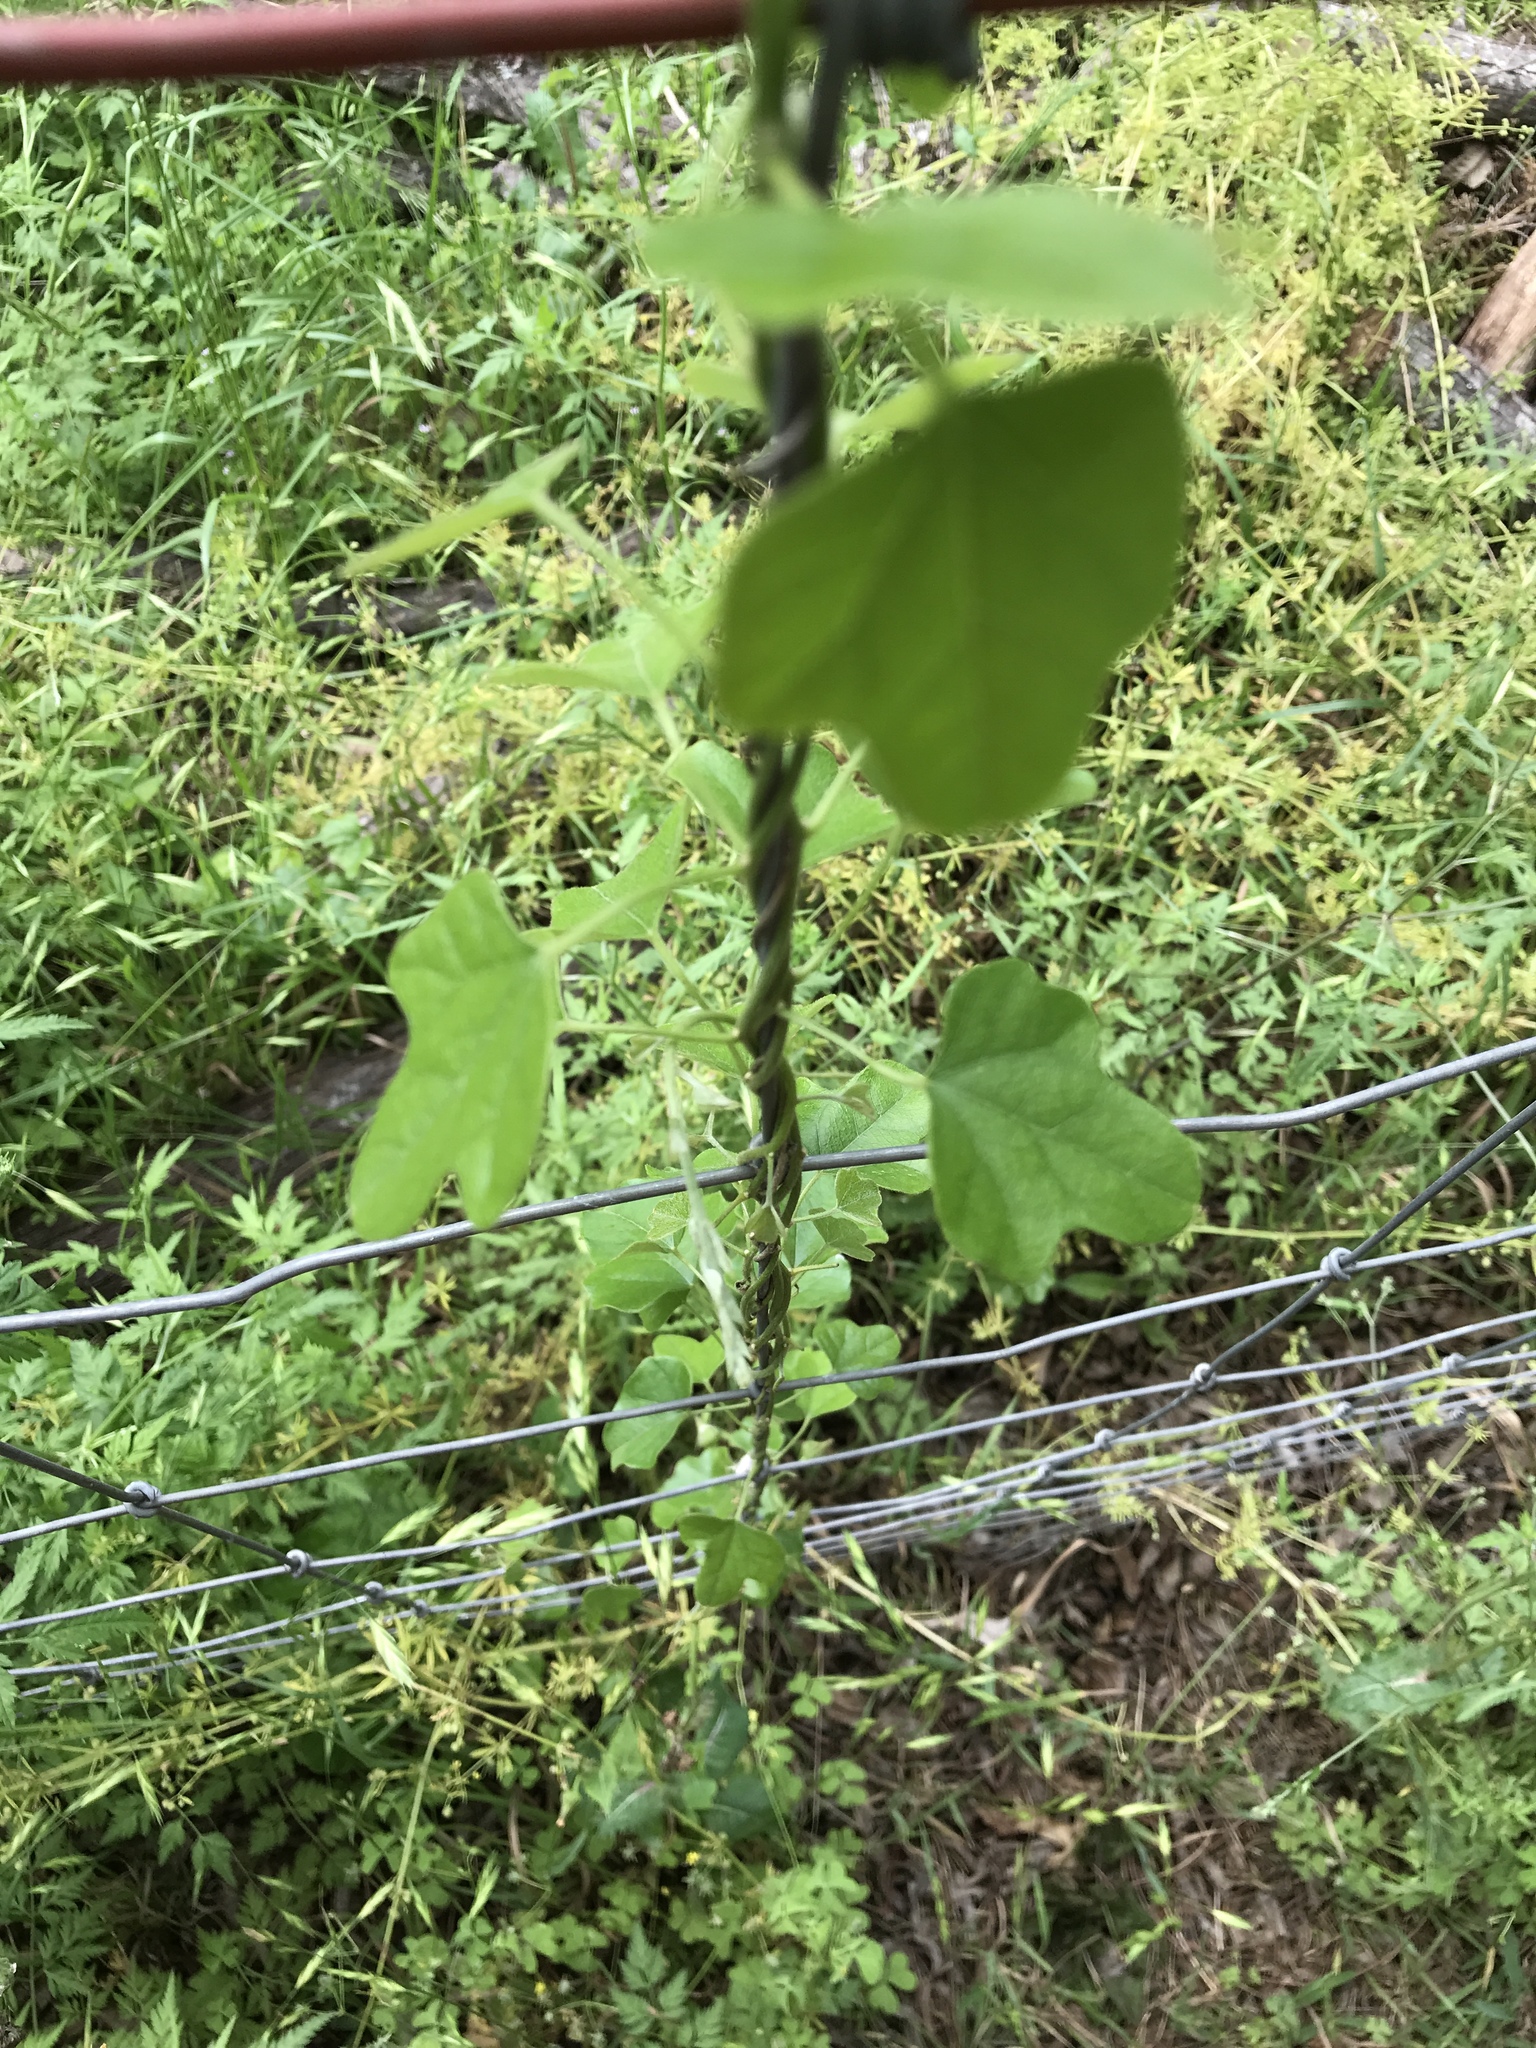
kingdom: Plantae
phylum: Tracheophyta
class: Magnoliopsida
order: Ranunculales
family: Menispermaceae
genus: Cocculus
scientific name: Cocculus carolinus
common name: Carolina moonseed
